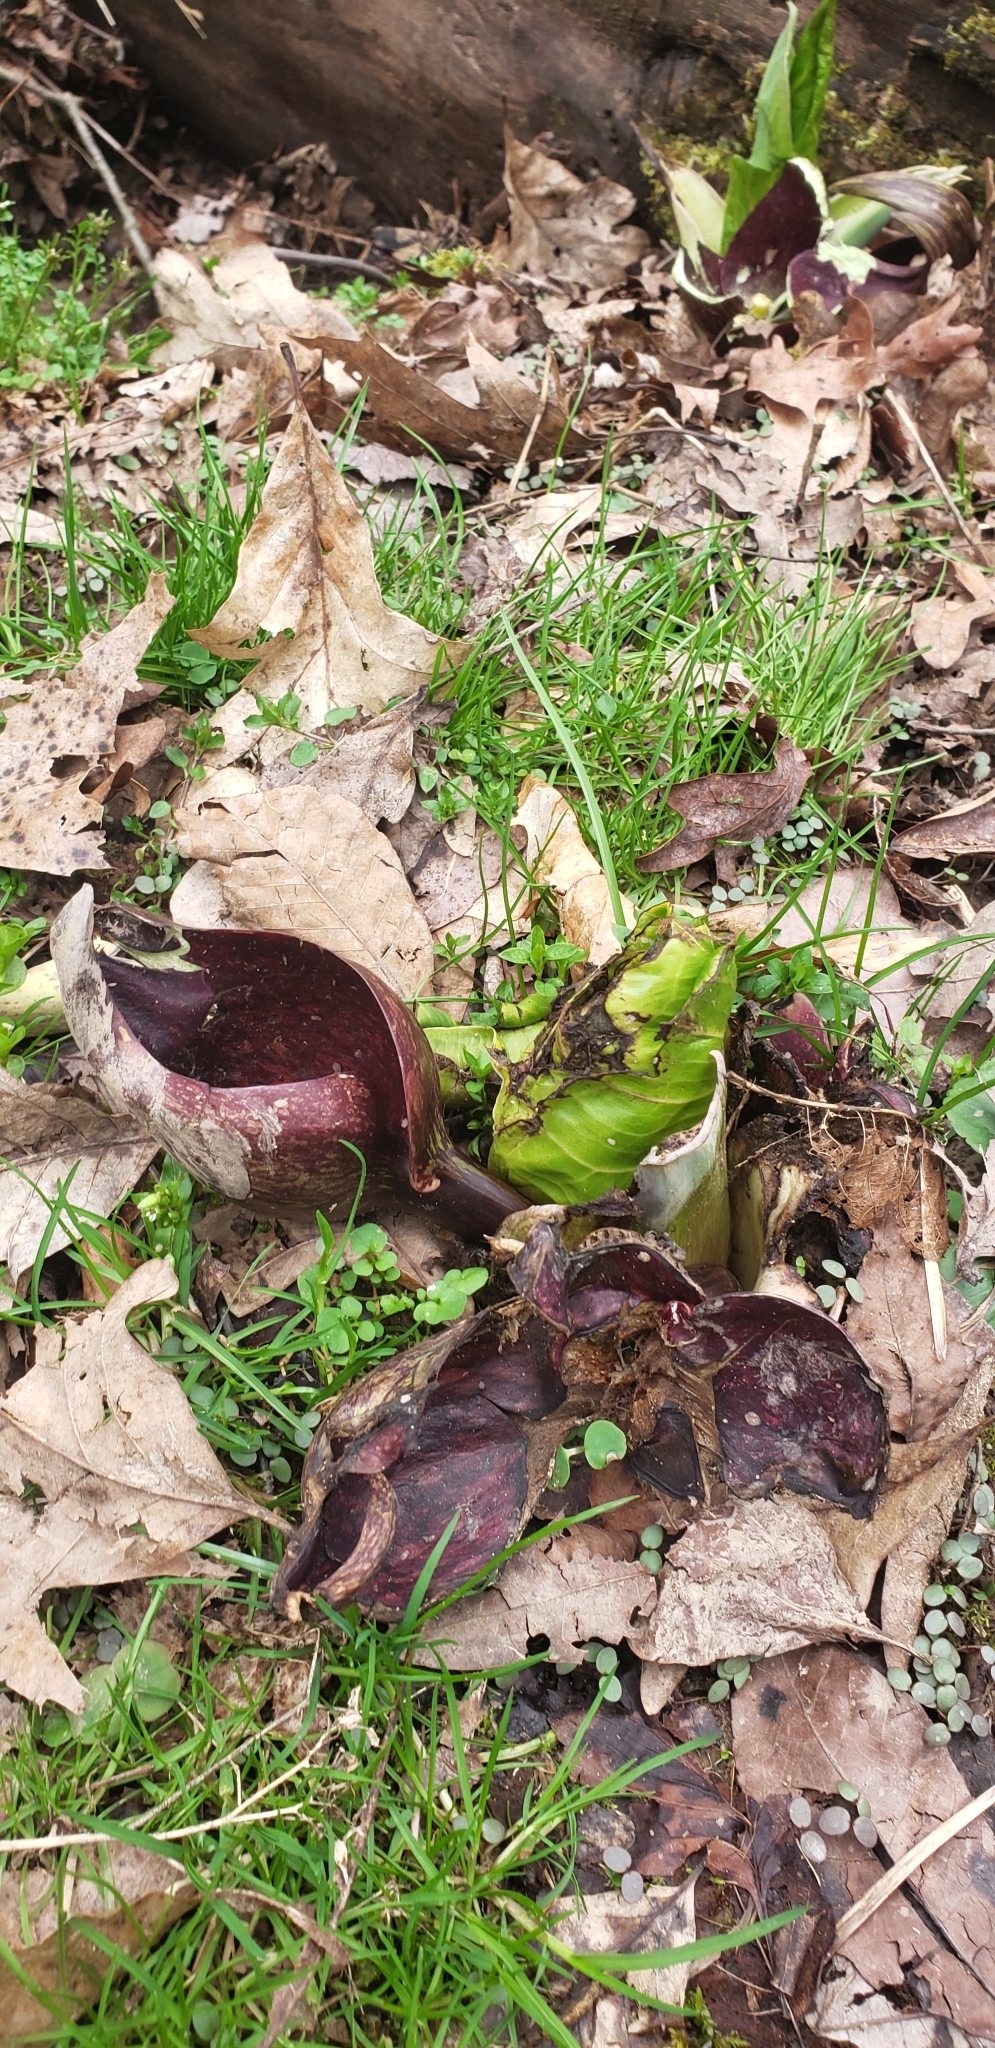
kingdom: Plantae
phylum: Tracheophyta
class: Liliopsida
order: Alismatales
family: Araceae
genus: Symplocarpus
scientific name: Symplocarpus foetidus
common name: Eastern skunk cabbage
